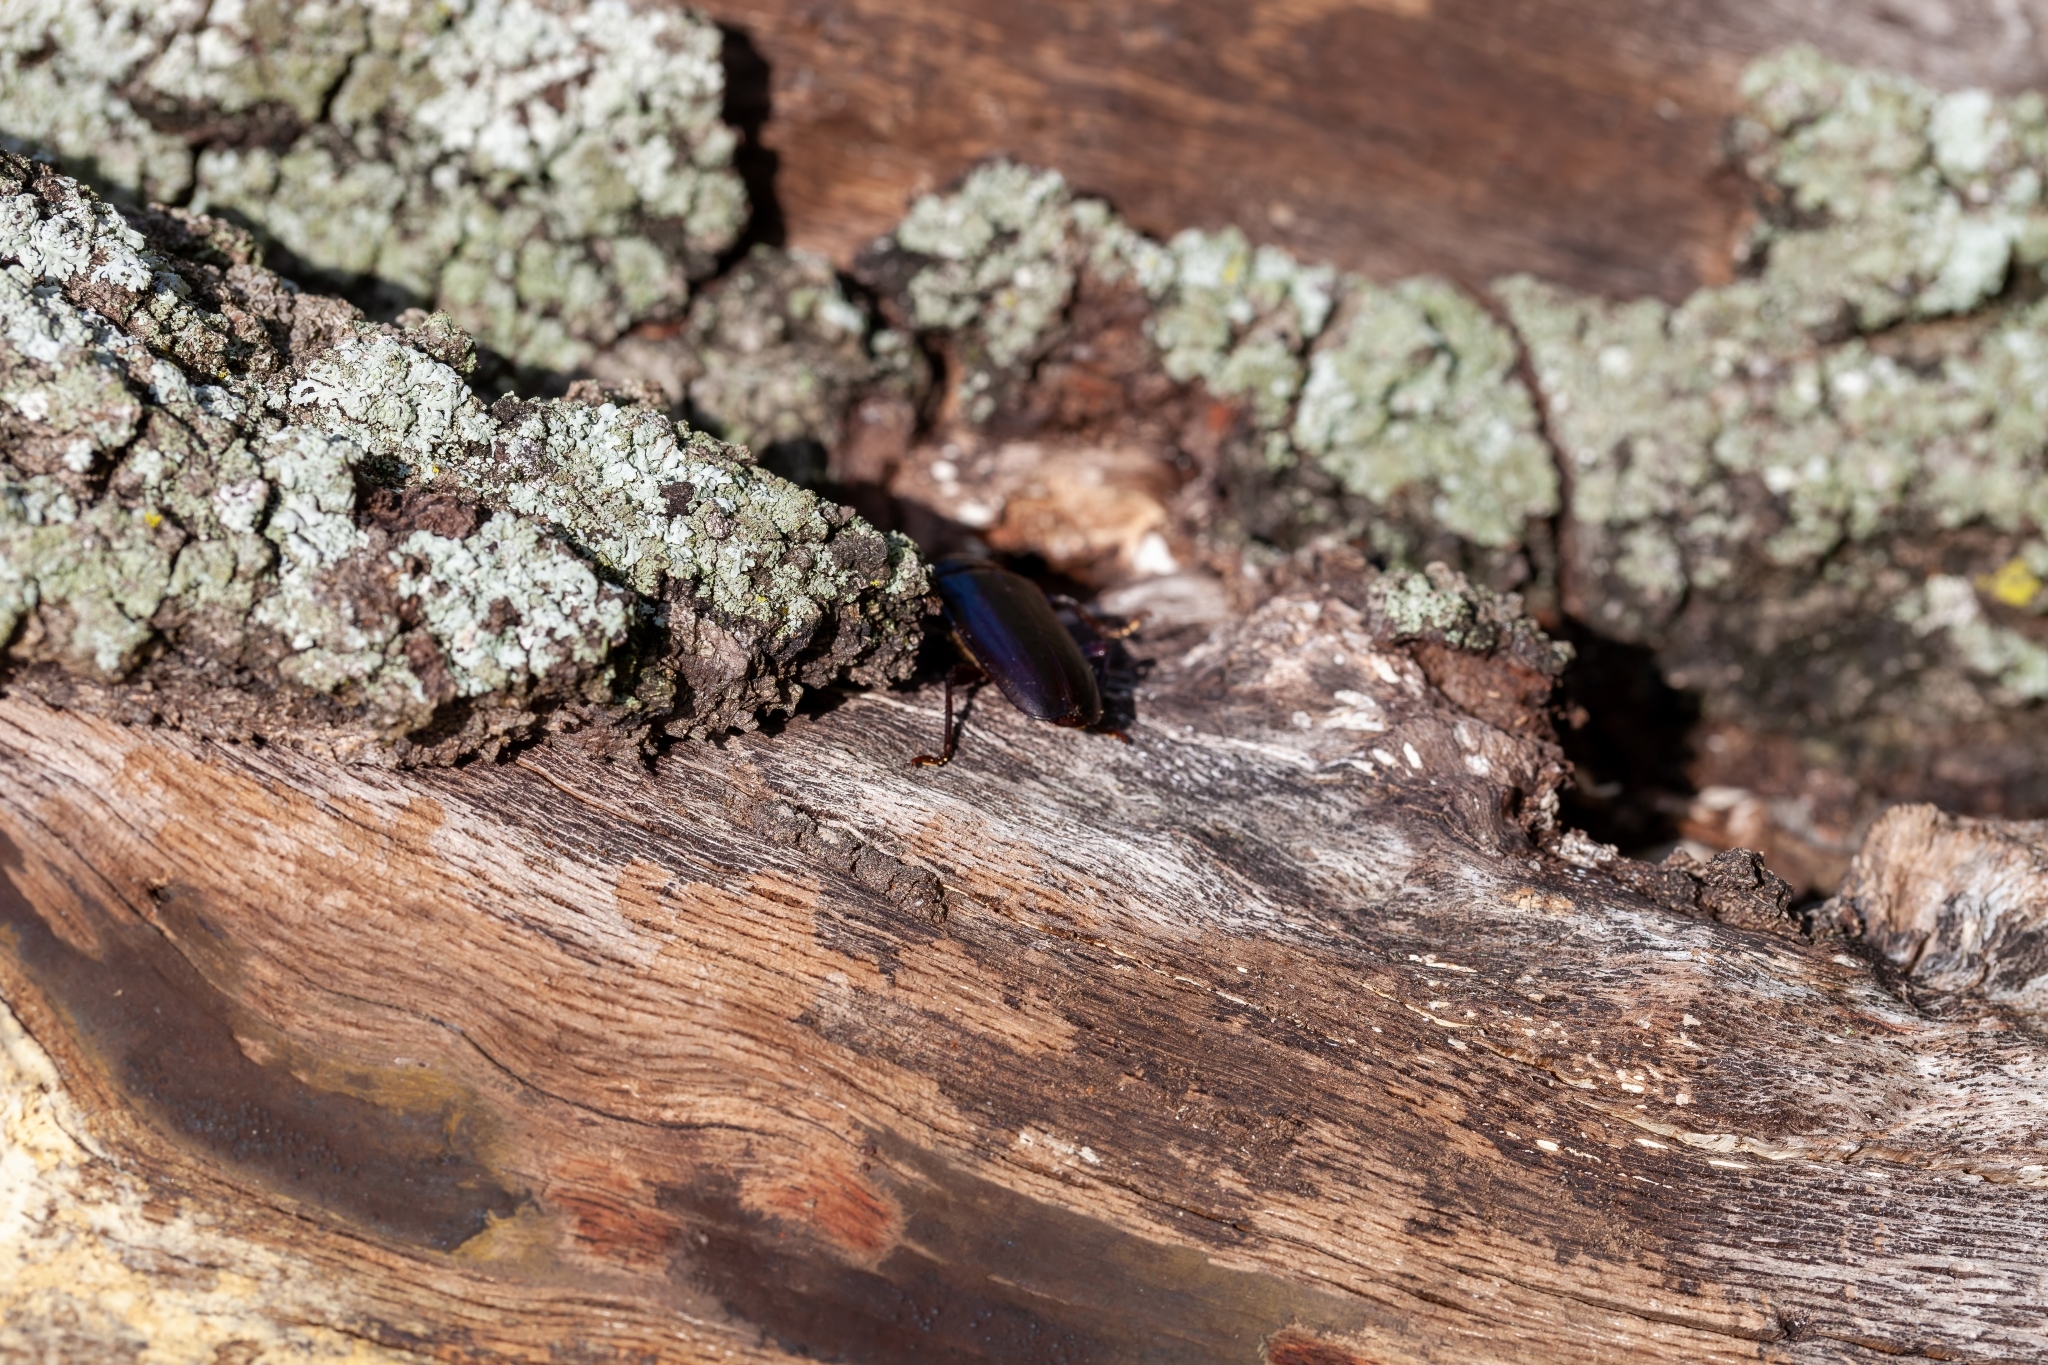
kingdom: Animalia
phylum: Arthropoda
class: Insecta
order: Coleoptera
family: Cerambycidae
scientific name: Cerambycidae
